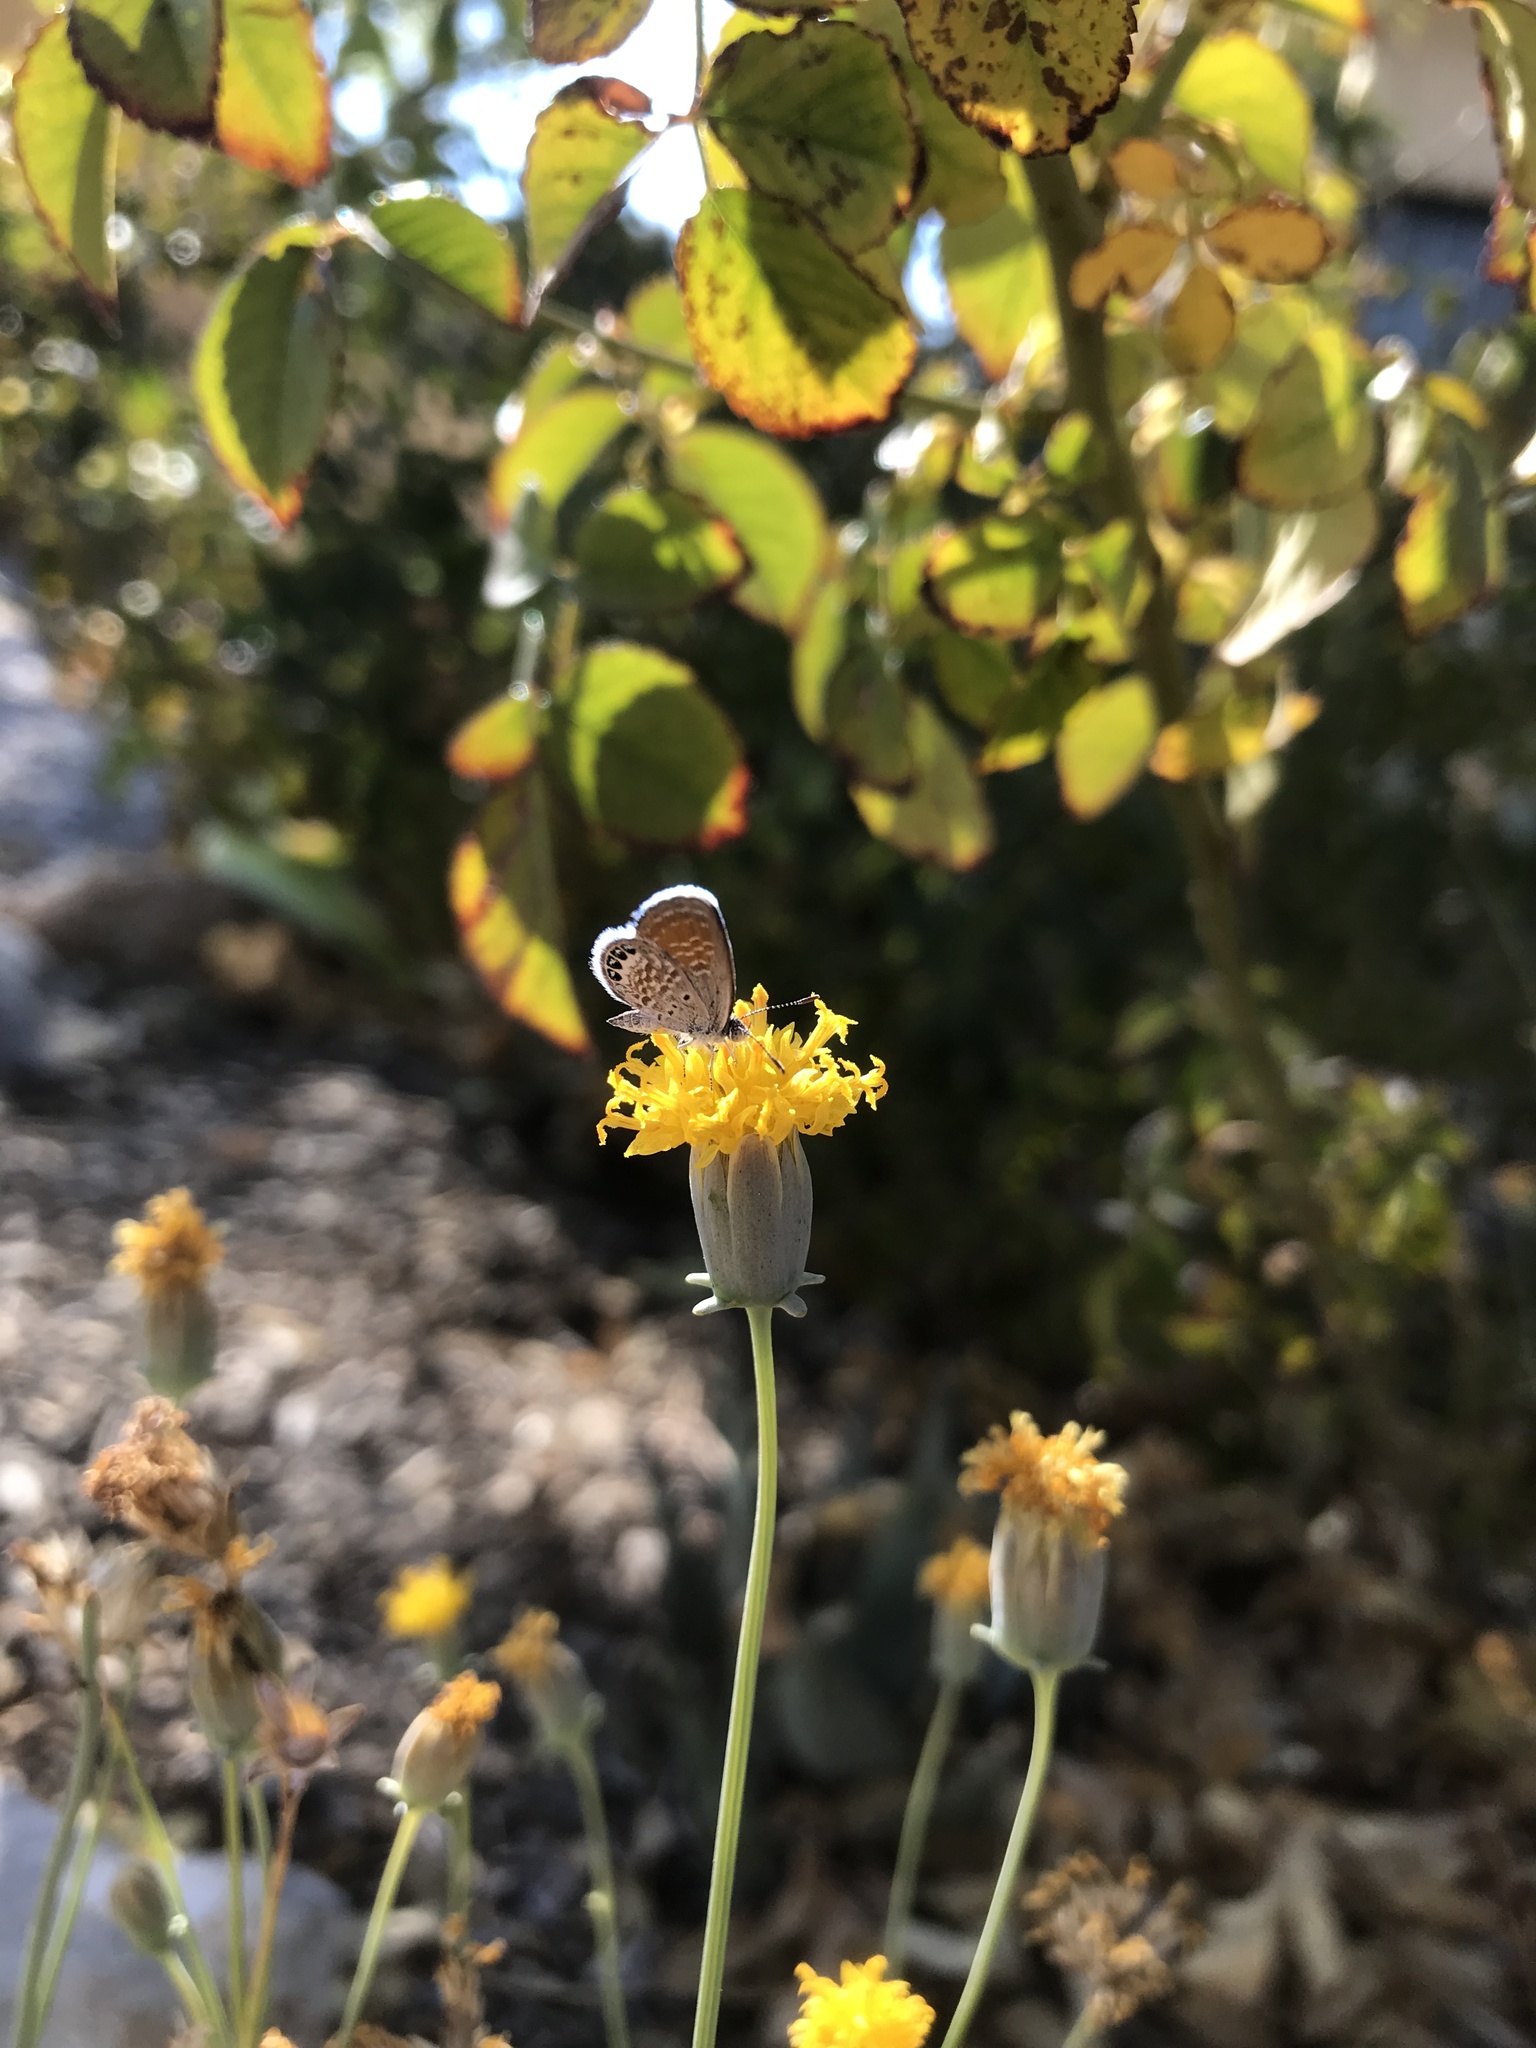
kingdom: Animalia
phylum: Arthropoda
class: Insecta
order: Lepidoptera
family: Lycaenidae
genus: Brephidium
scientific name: Brephidium exilis
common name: Pygmy blue
